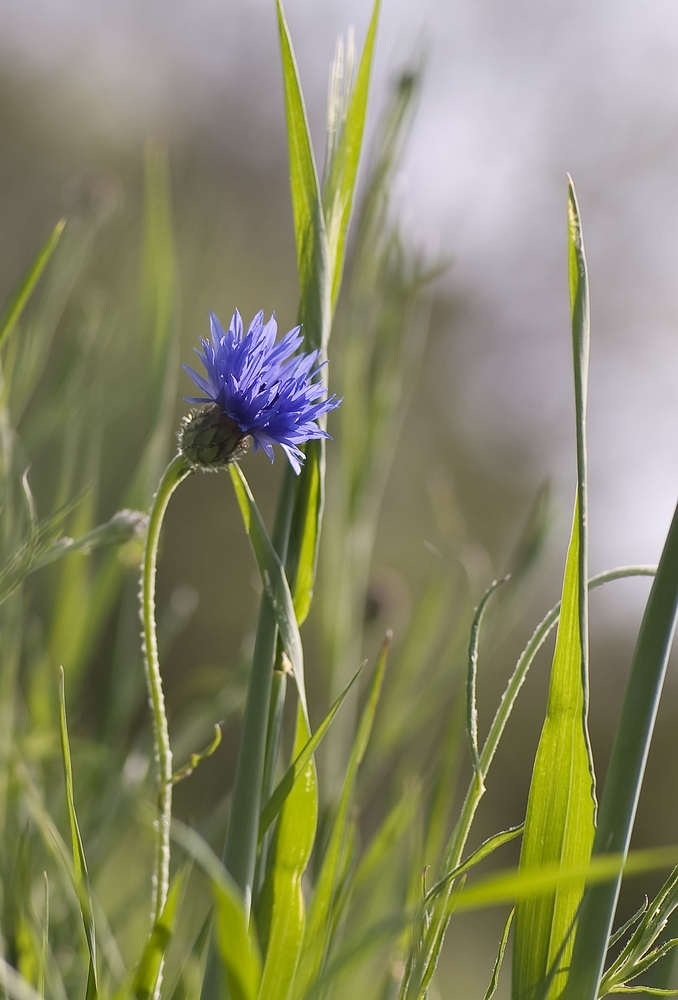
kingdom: Plantae
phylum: Tracheophyta
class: Magnoliopsida
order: Asterales
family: Asteraceae
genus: Centaurea
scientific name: Centaurea cyanus
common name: Cornflower
